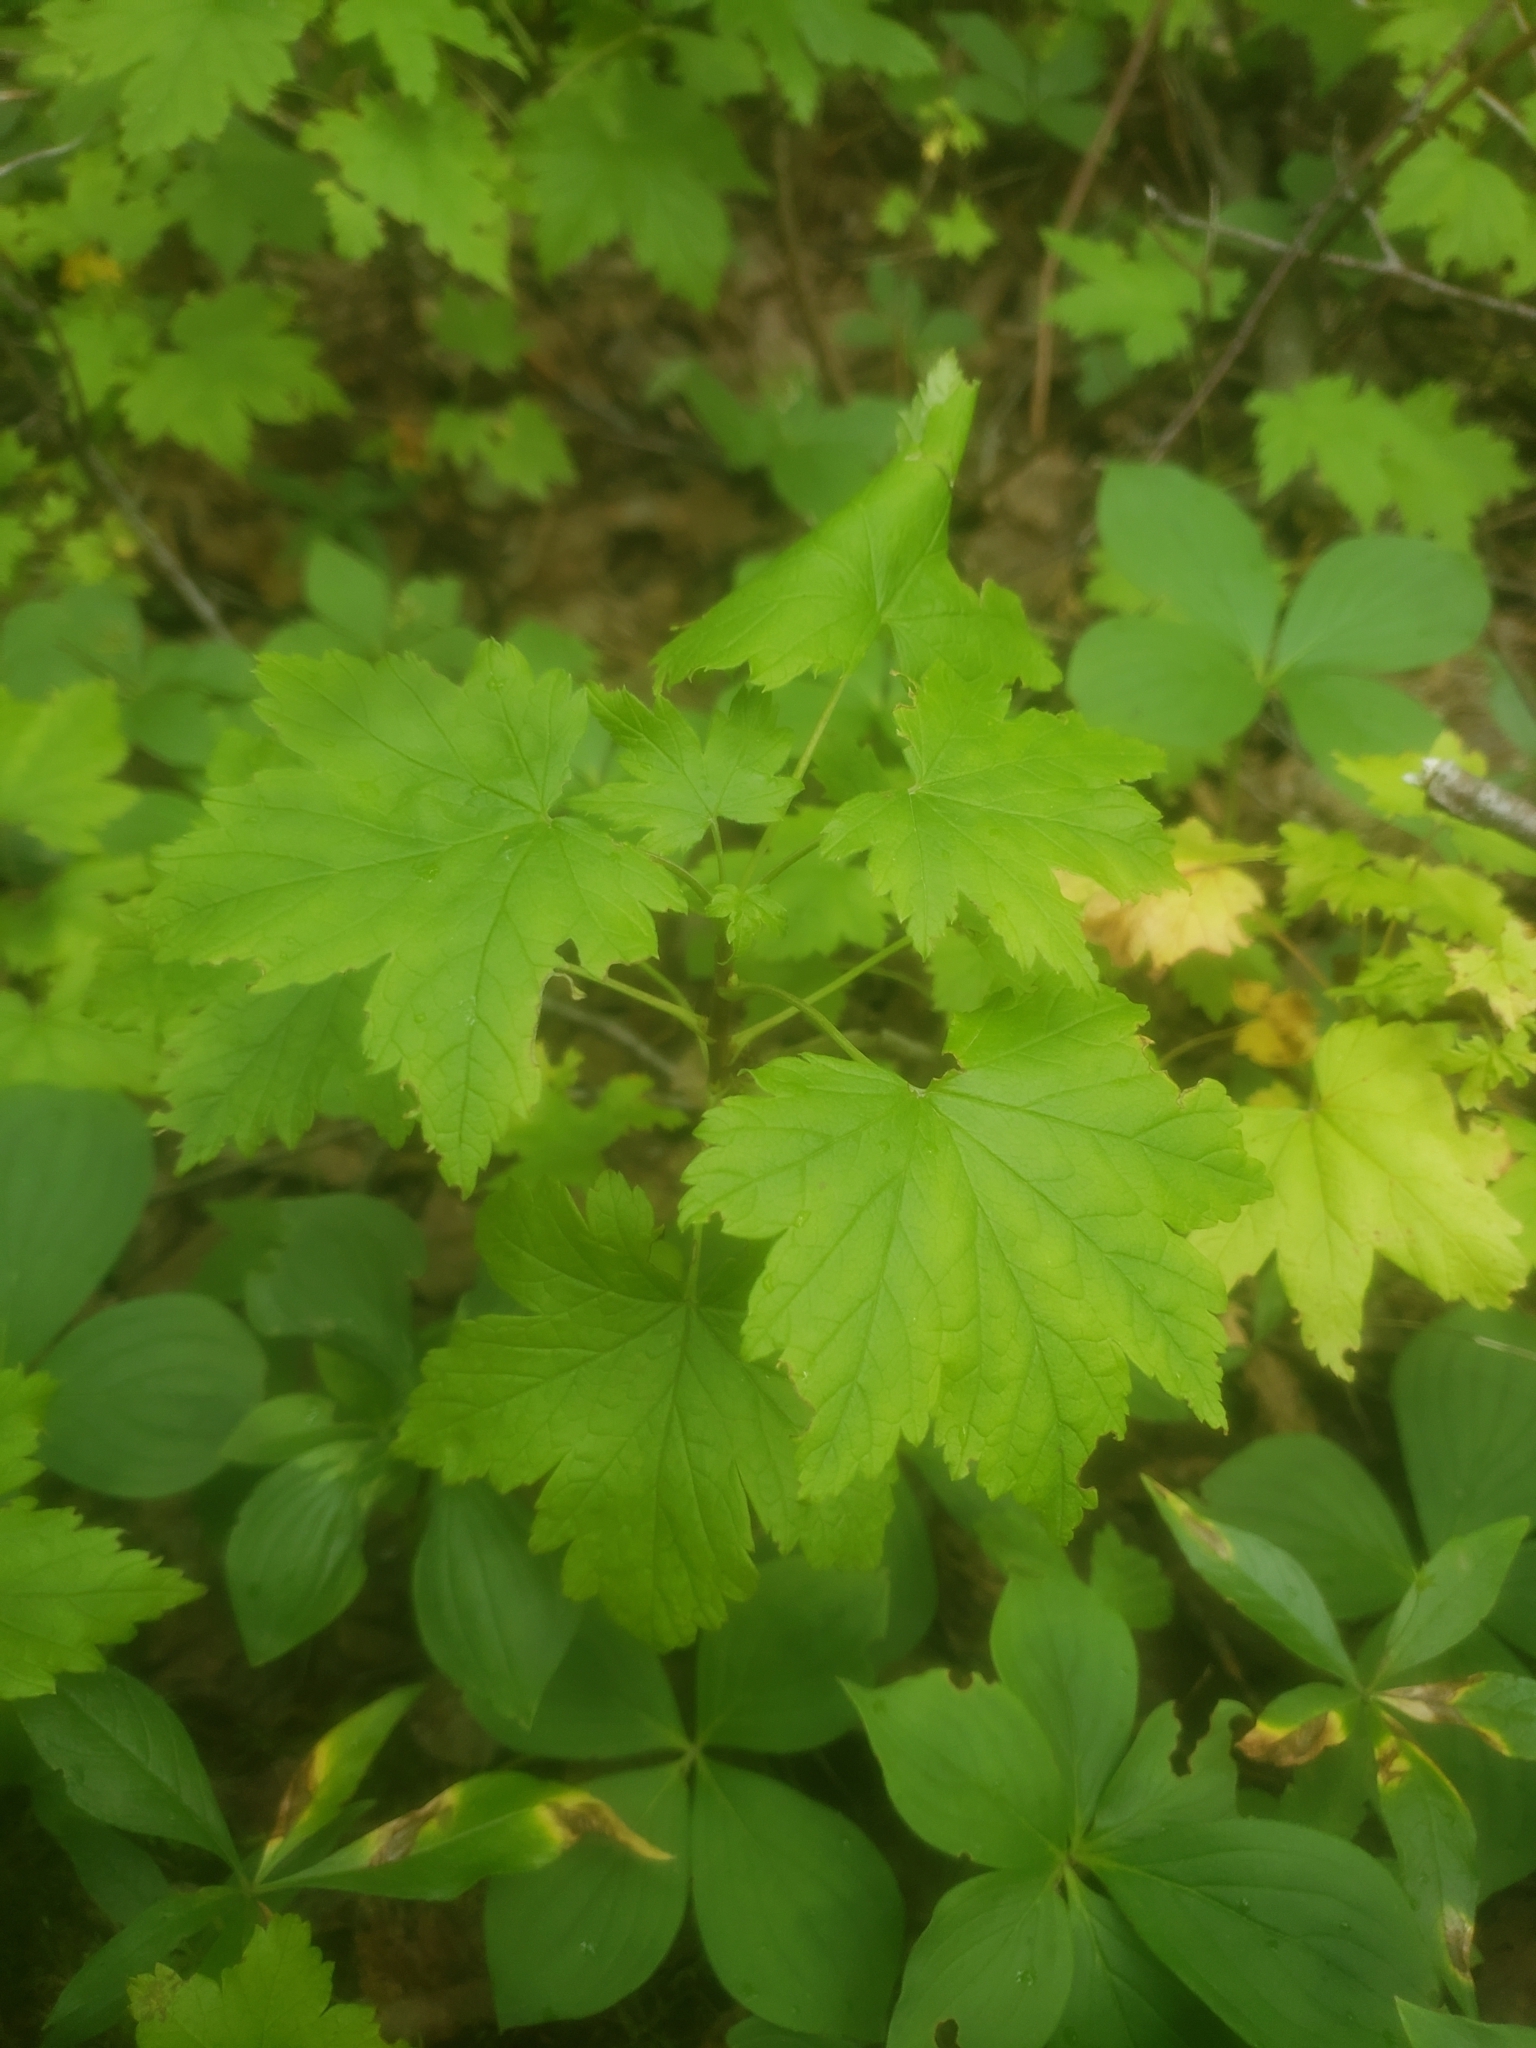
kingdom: Plantae
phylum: Tracheophyta
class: Magnoliopsida
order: Saxifragales
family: Grossulariaceae
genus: Ribes
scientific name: Ribes glandulosum
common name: Skunk currant
